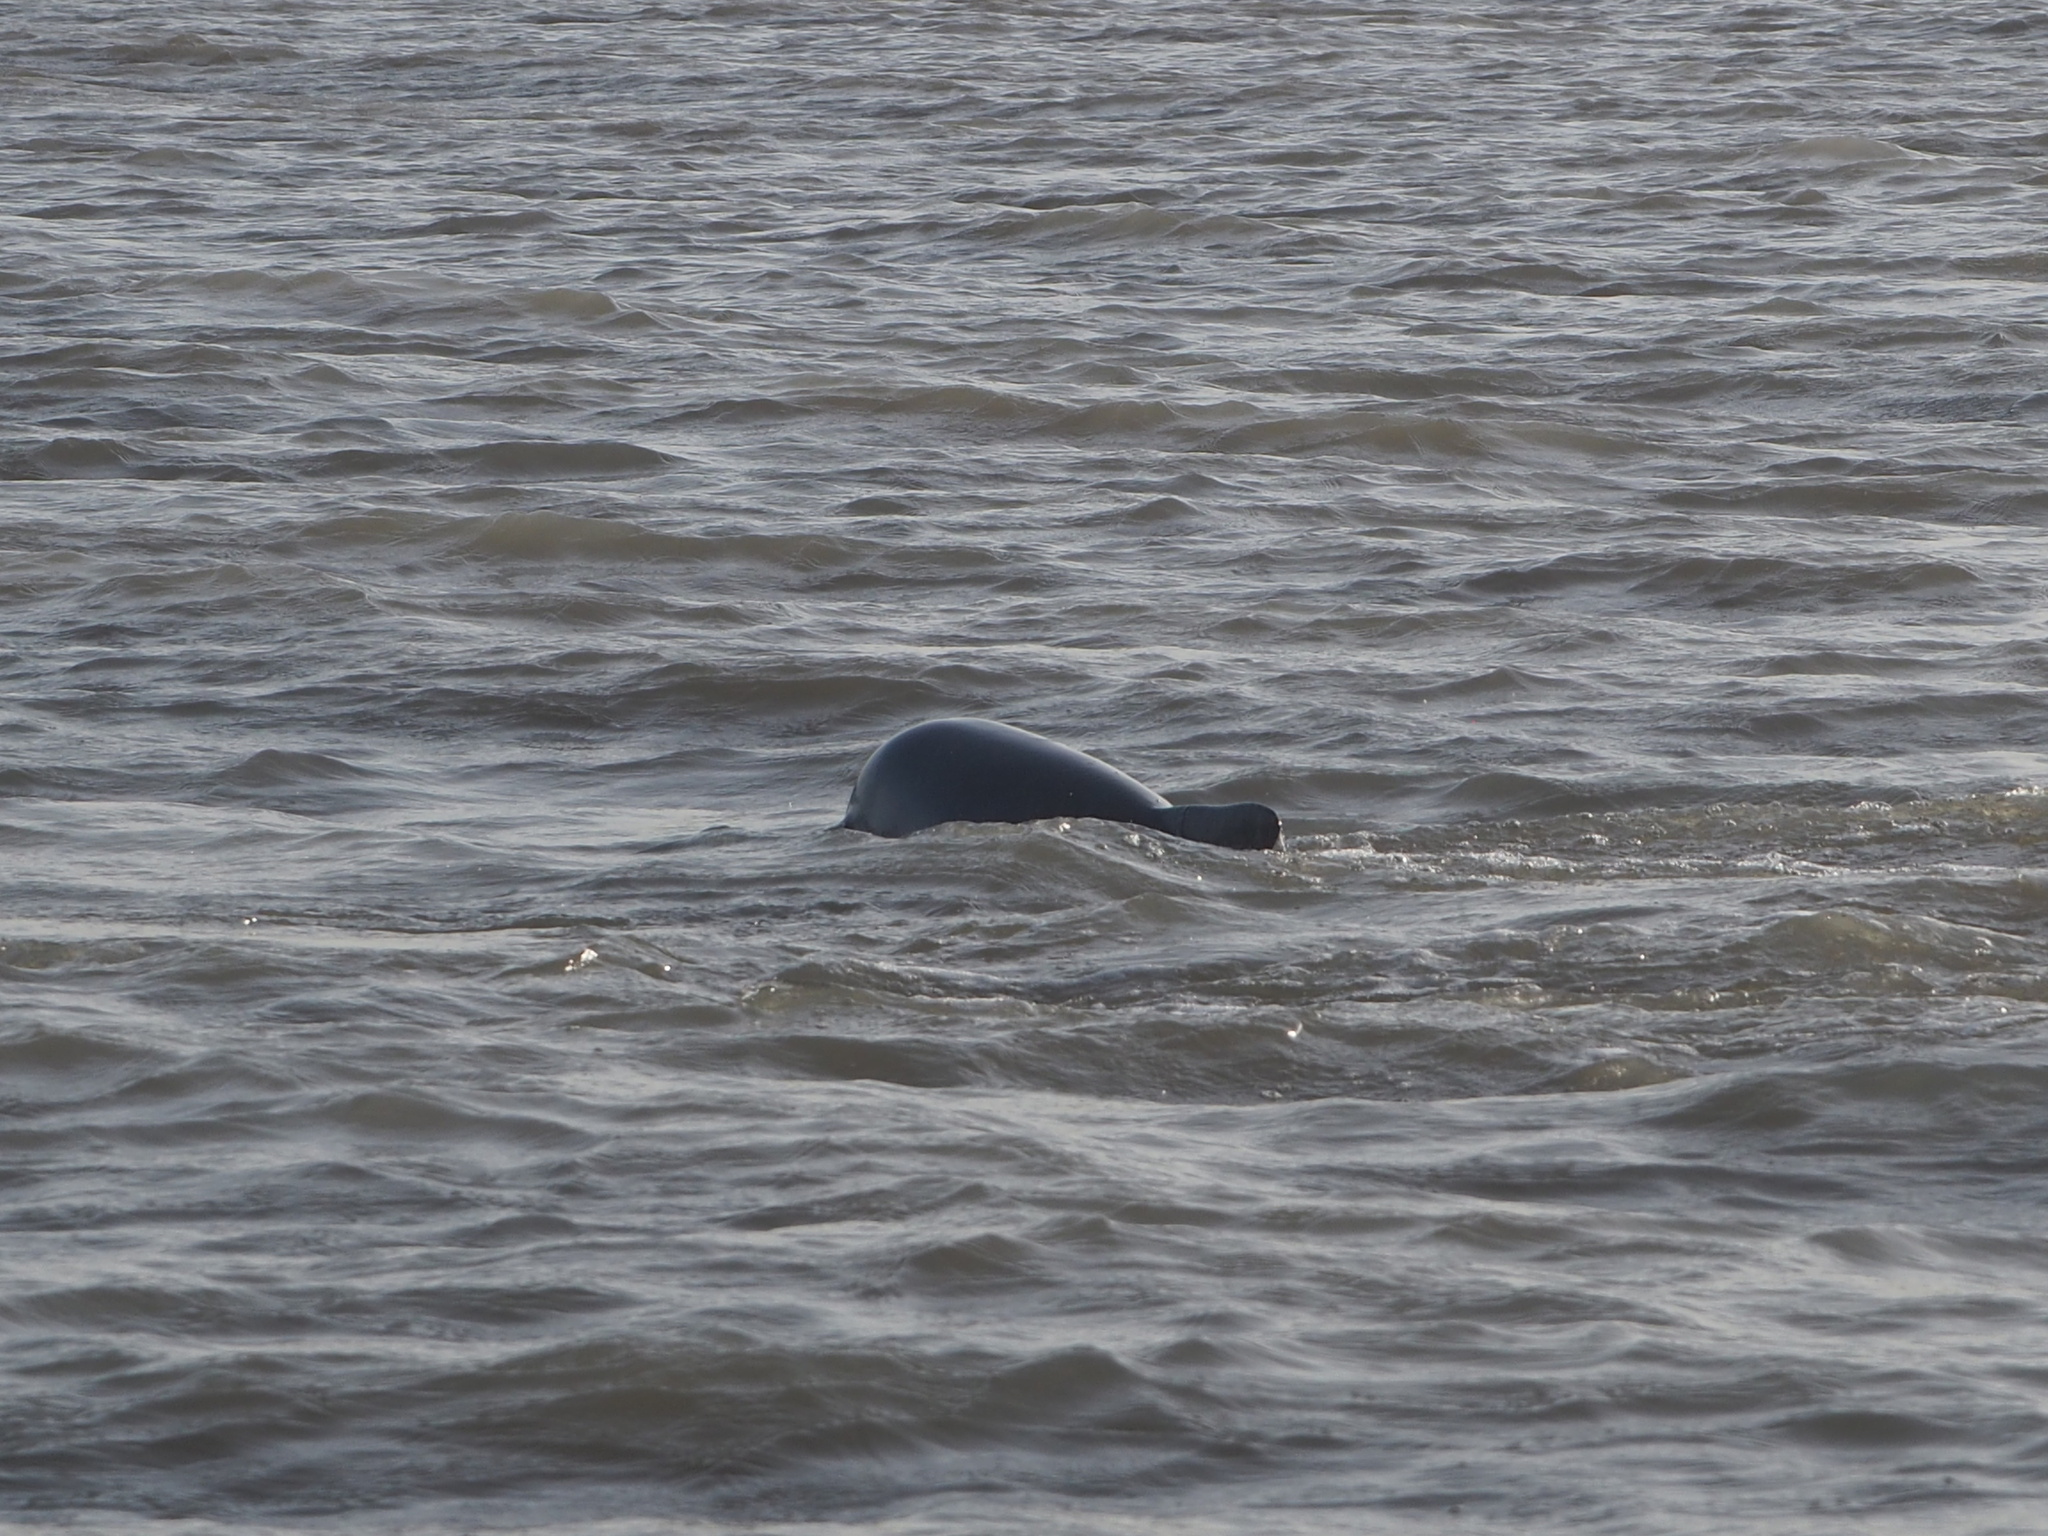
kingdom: Animalia
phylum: Chordata
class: Mammalia
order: Cetacea
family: Delphinidae
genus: Sotalia
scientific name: Sotalia guianensis
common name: Guiana dolphin
